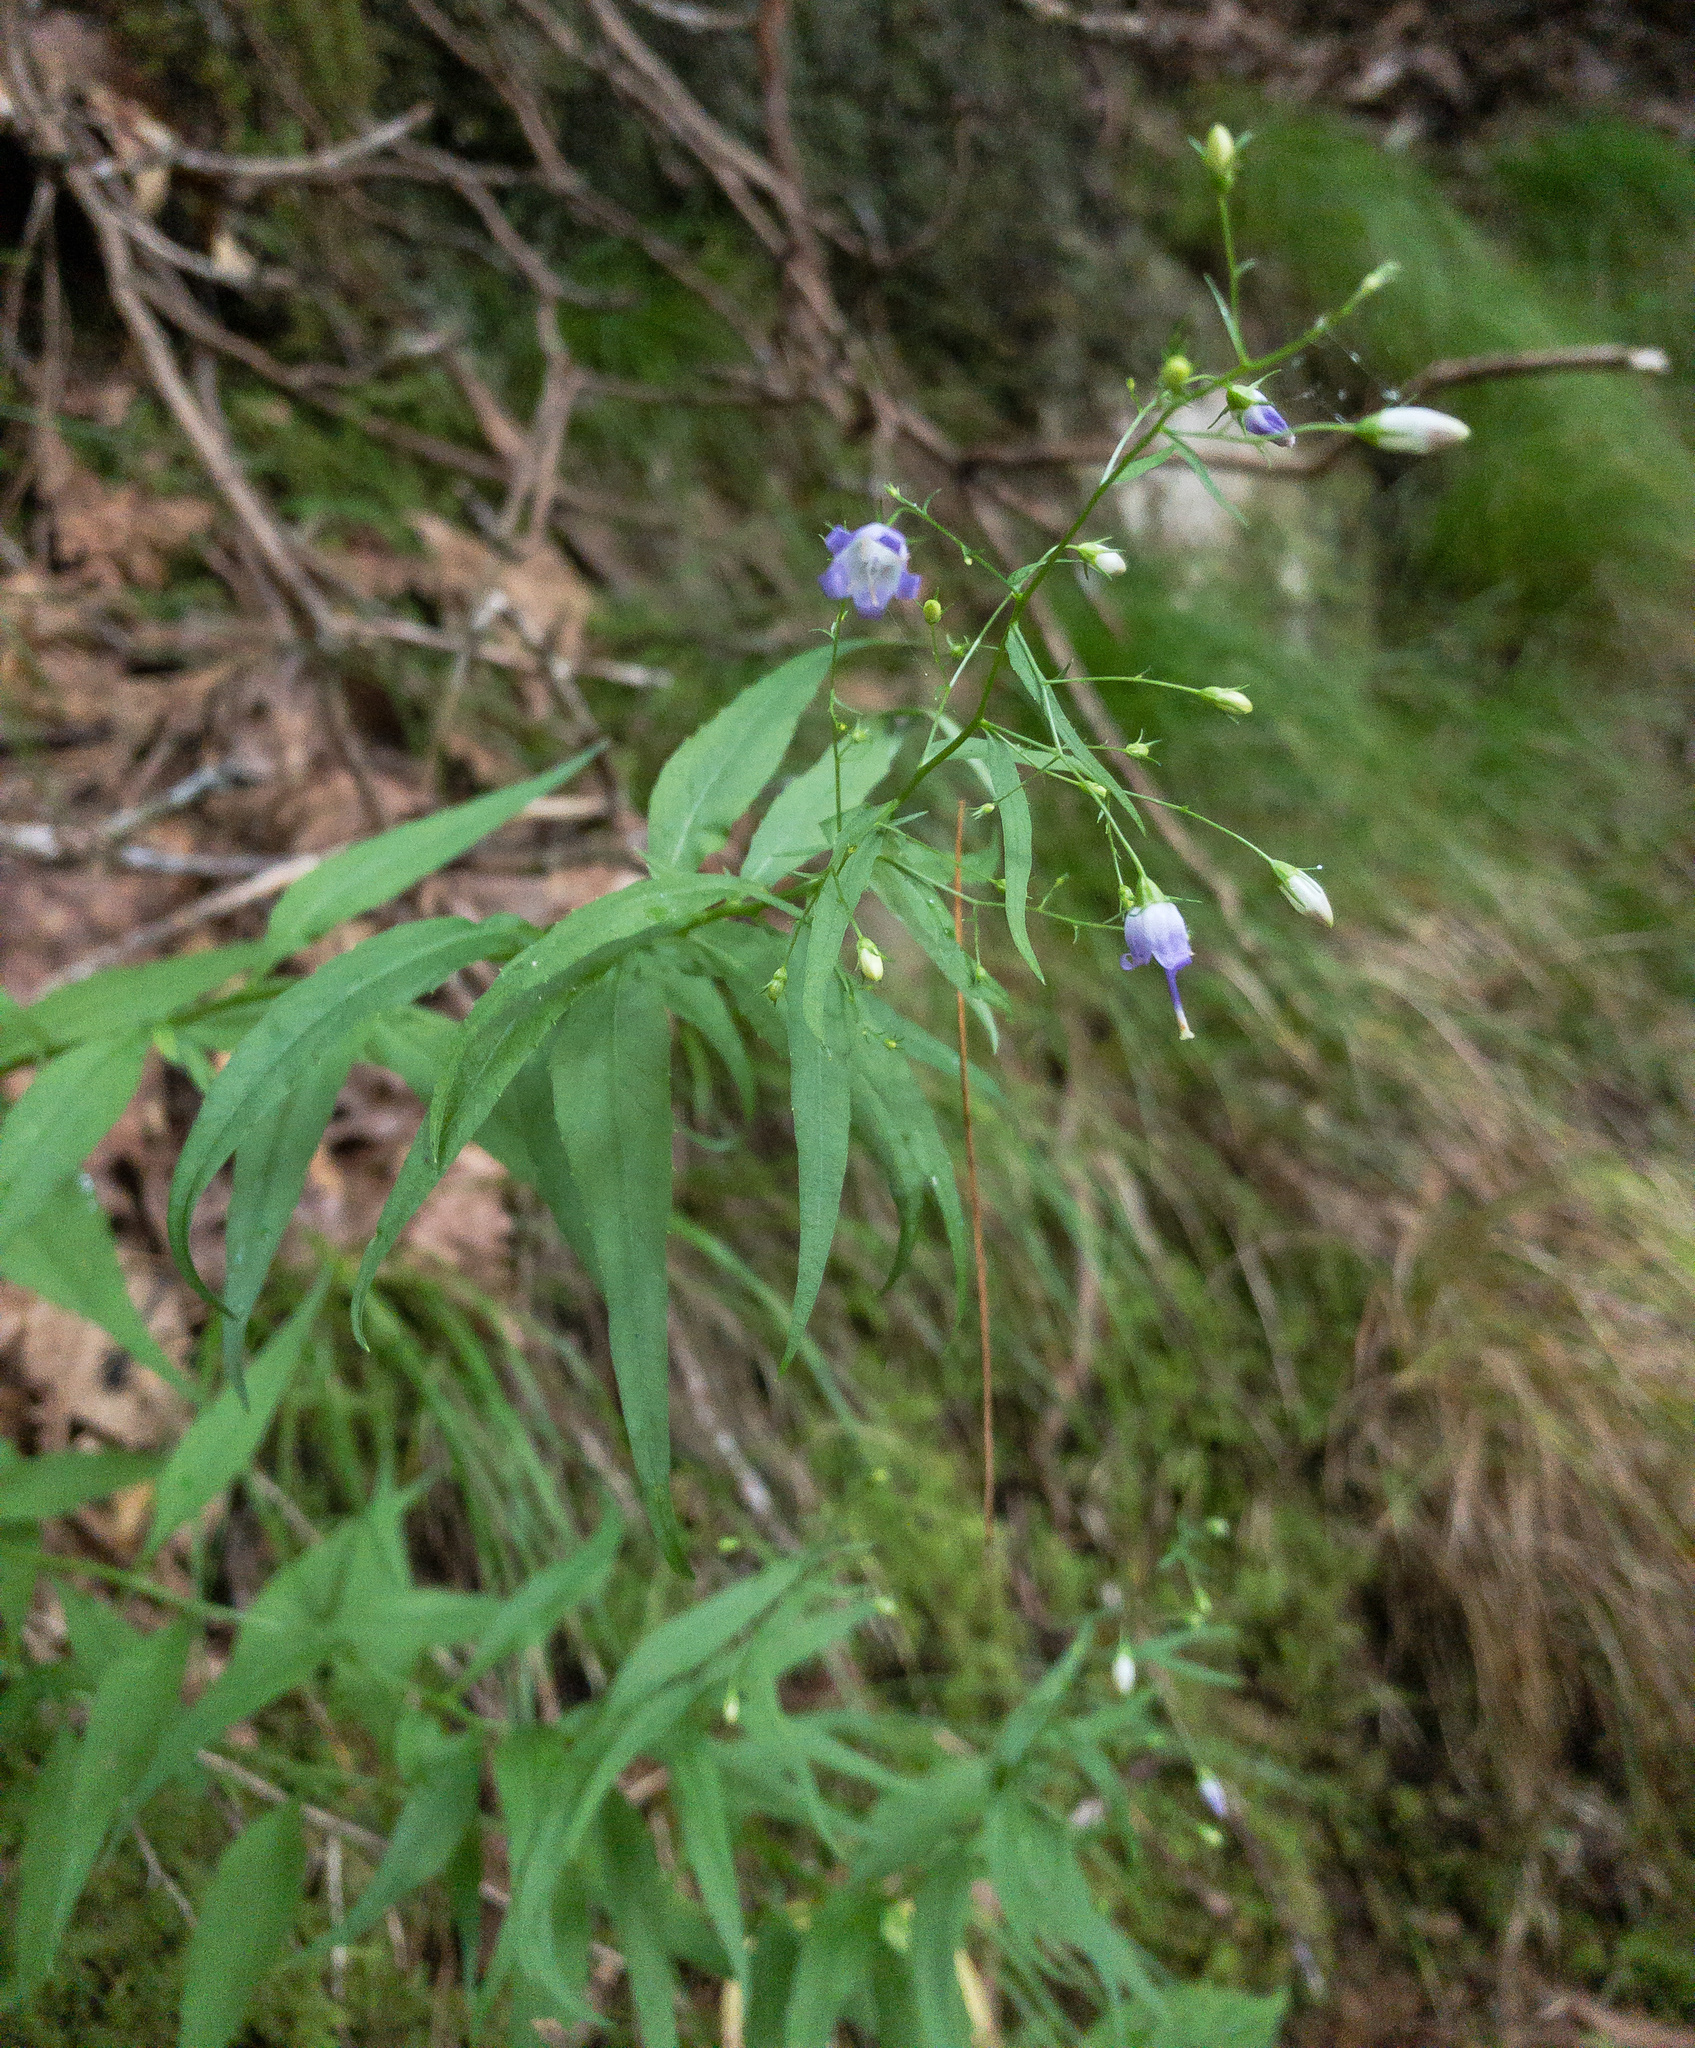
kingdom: Plantae
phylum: Tracheophyta
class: Magnoliopsida
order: Asterales
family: Campanulaceae
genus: Campanula
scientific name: Campanula divaricata
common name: Appalachian bellflower
